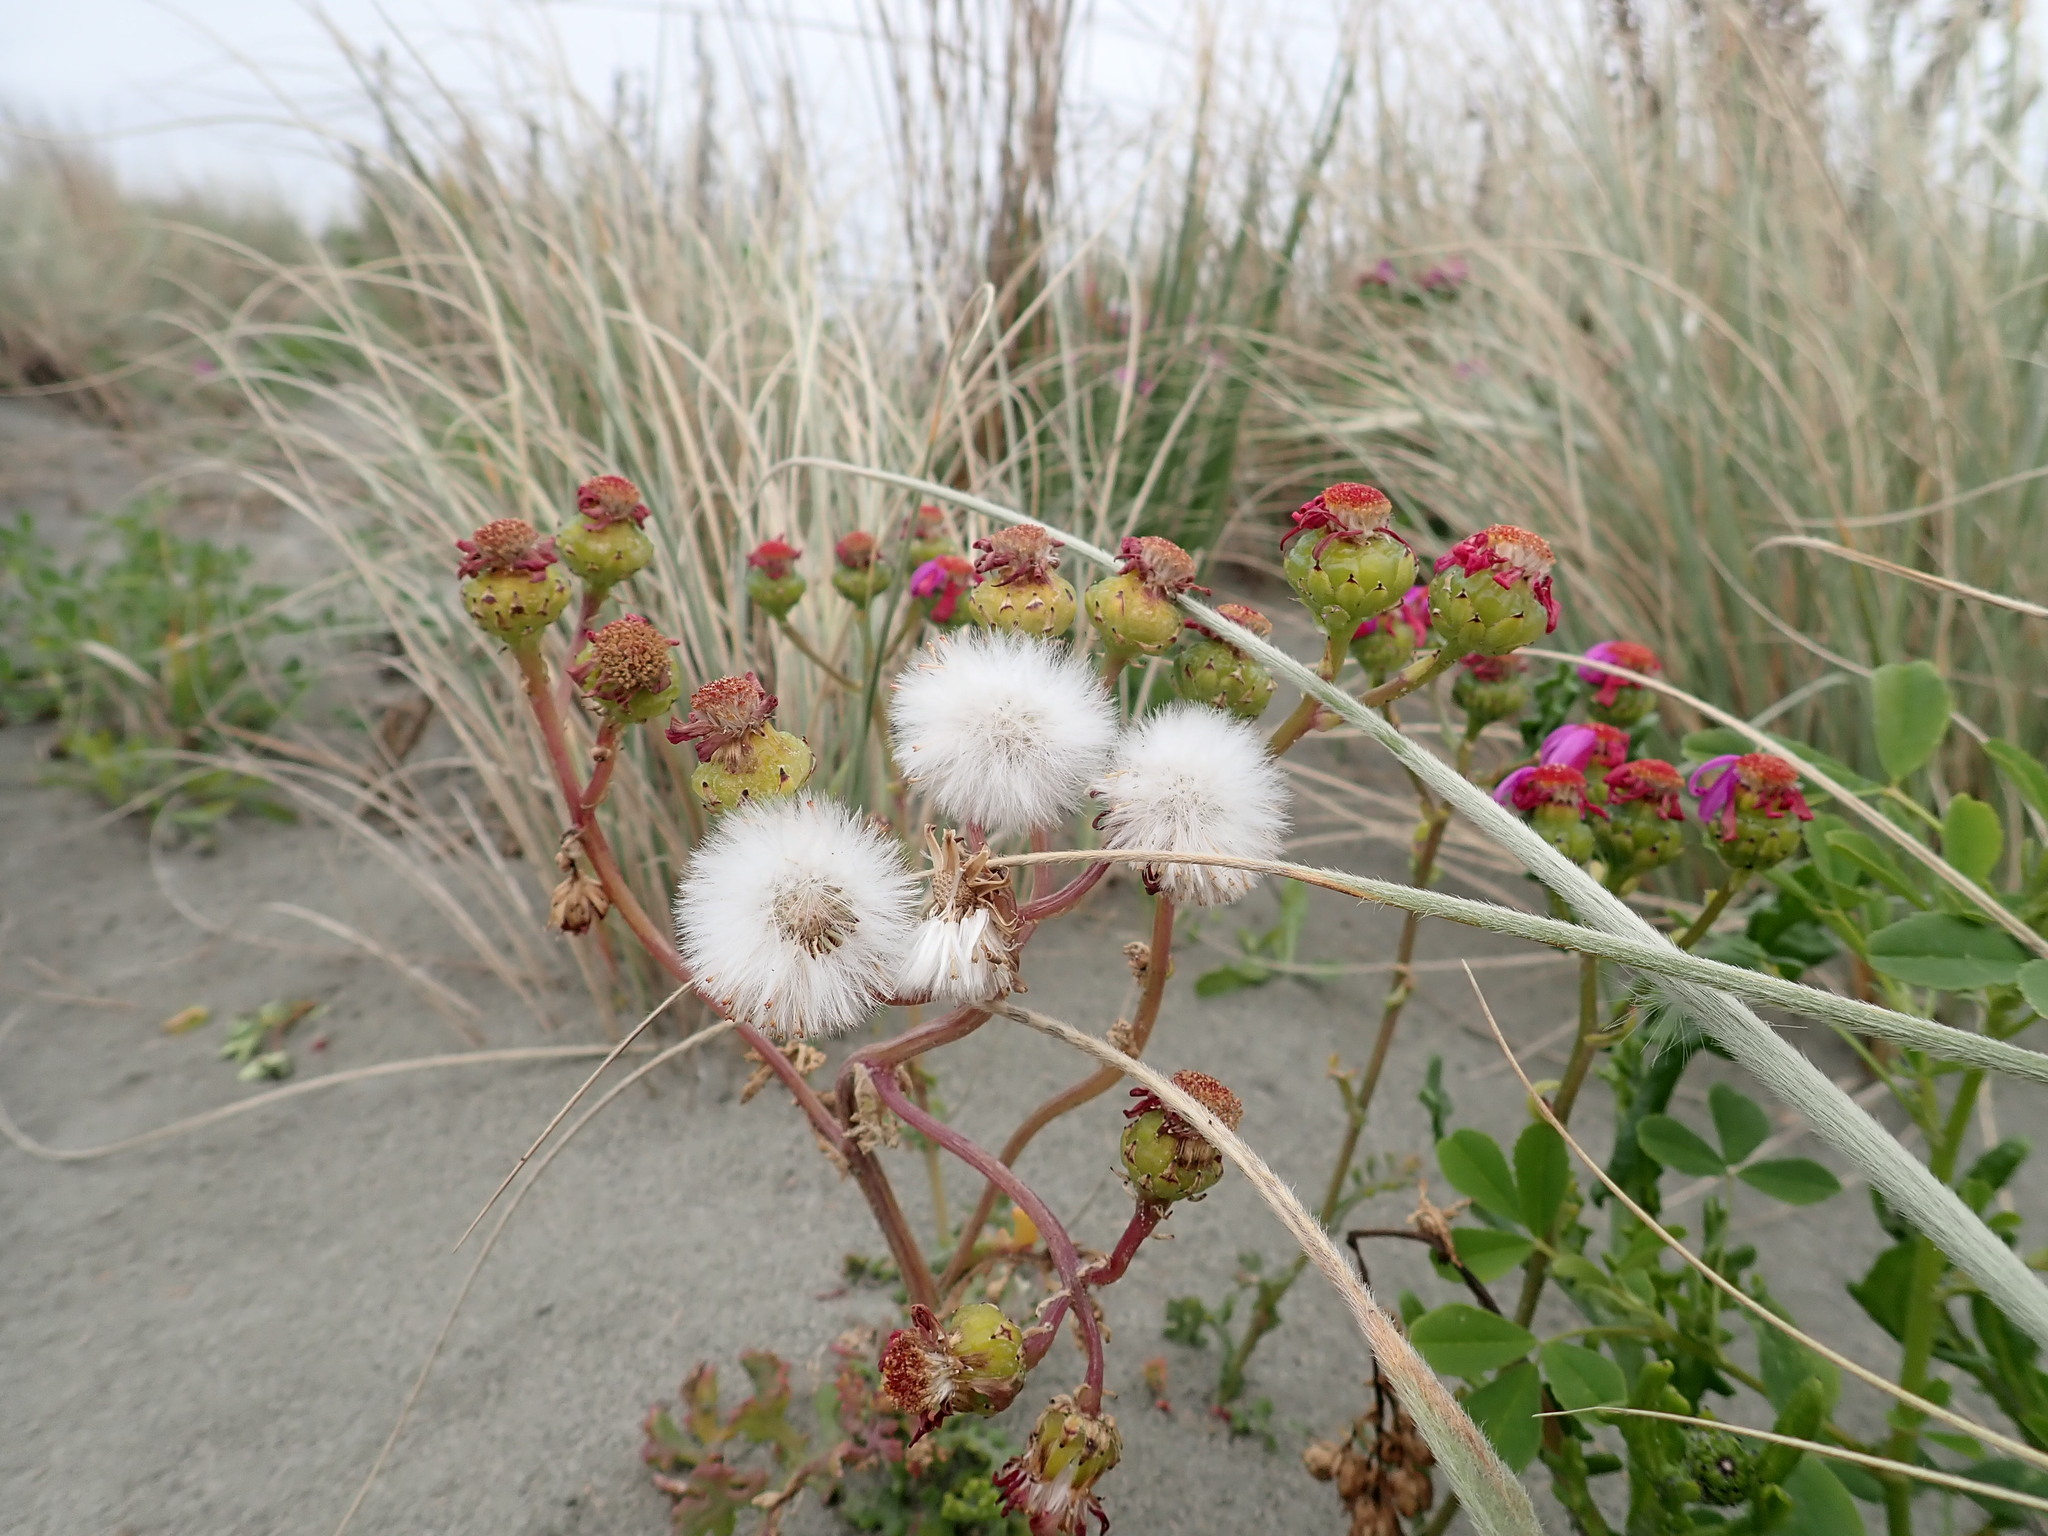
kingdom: Plantae
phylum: Tracheophyta
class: Magnoliopsida
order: Asterales
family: Asteraceae
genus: Senecio
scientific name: Senecio elegans
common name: Purple groundsel
